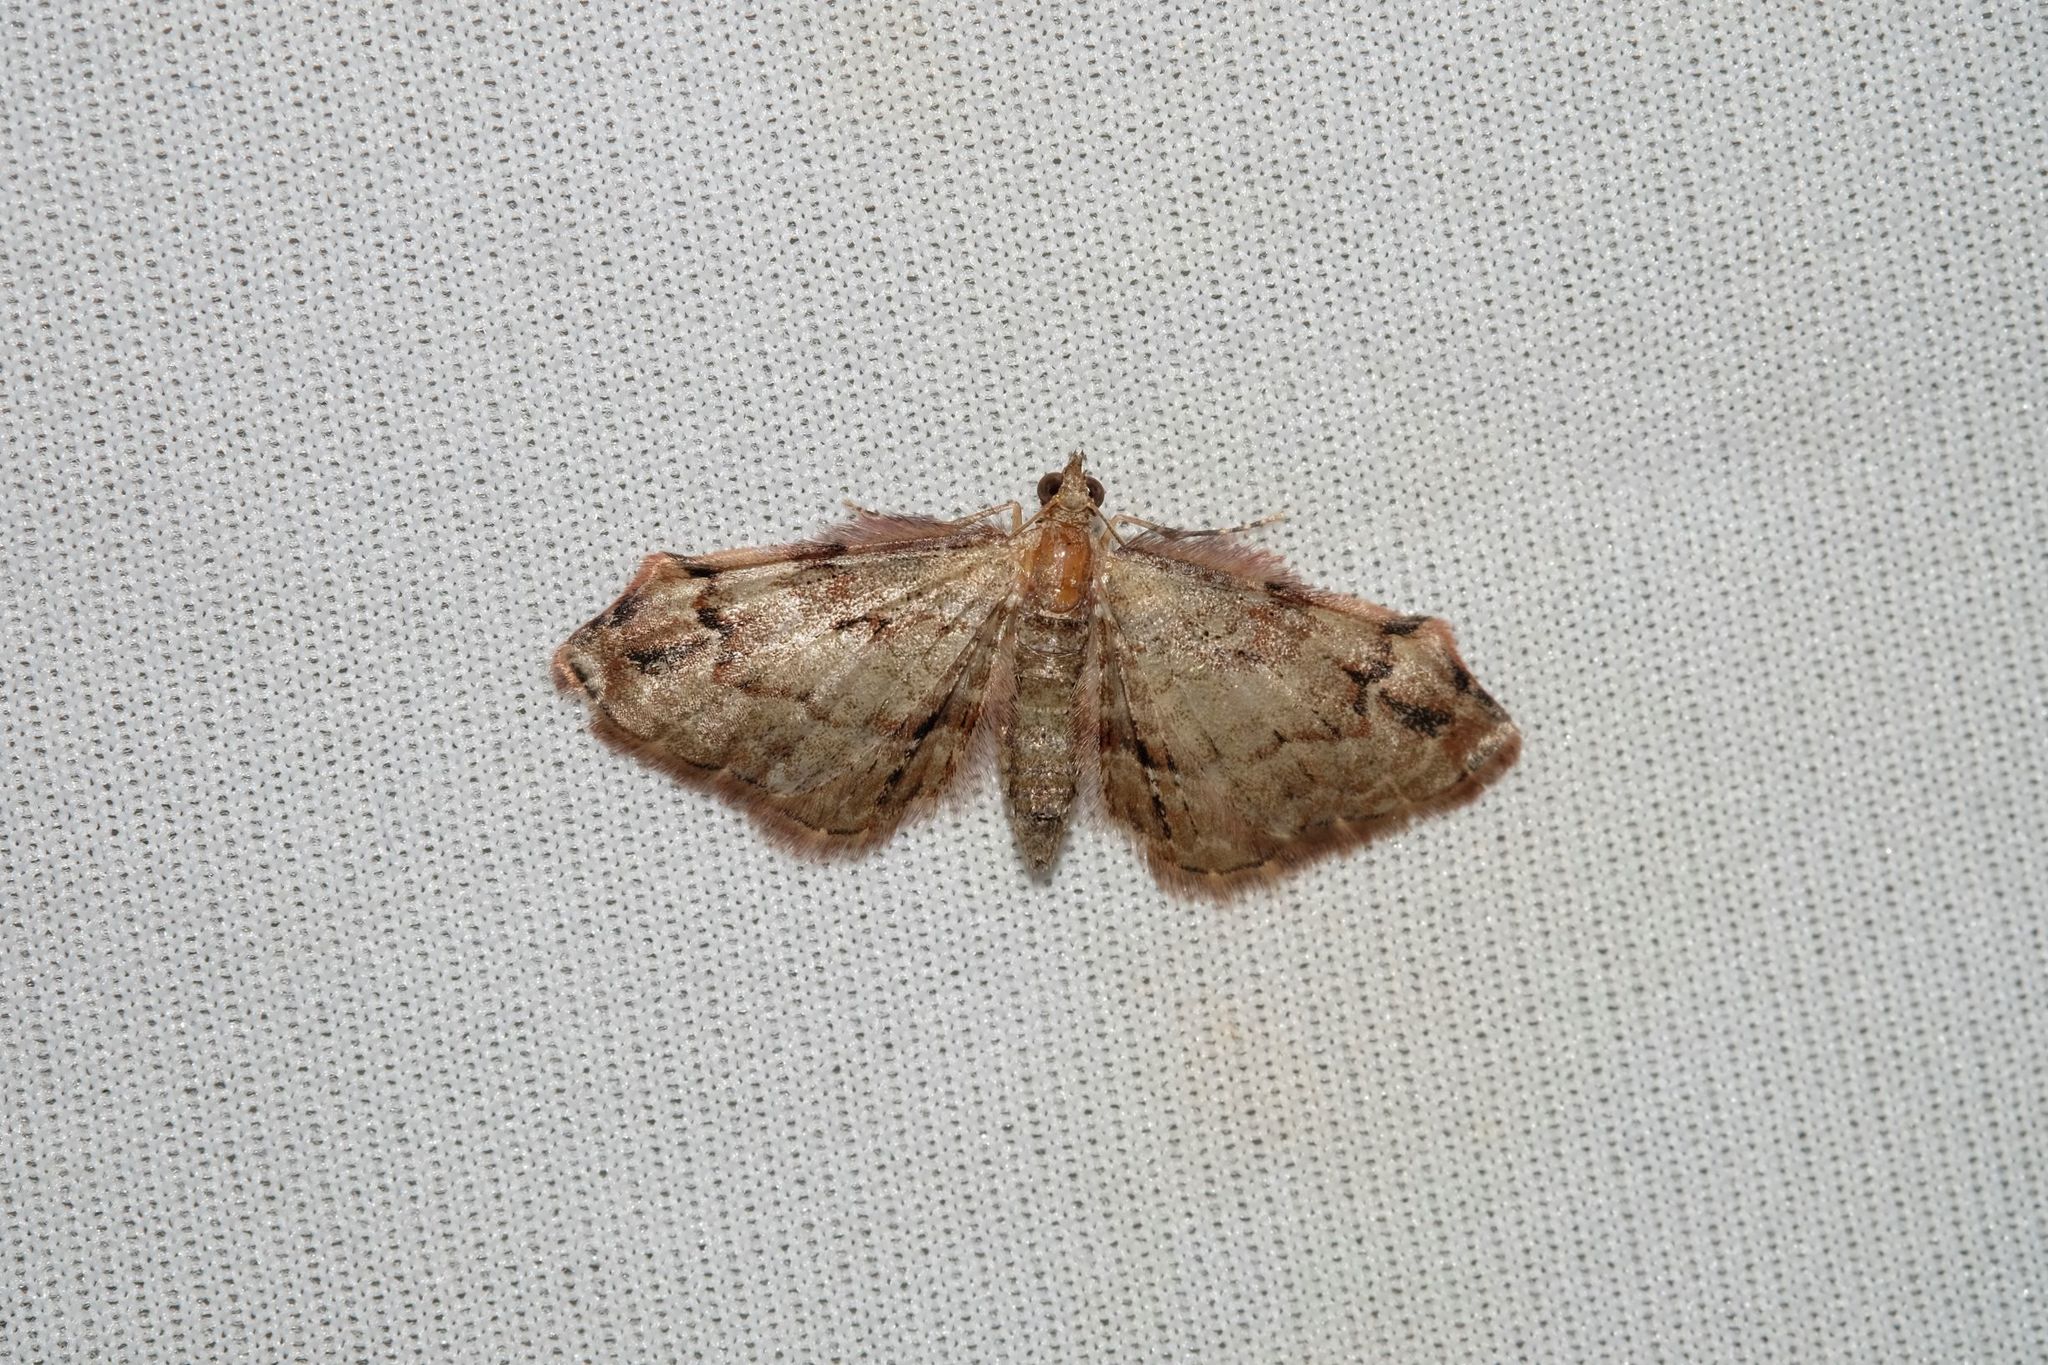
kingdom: Animalia
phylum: Arthropoda
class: Insecta
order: Lepidoptera
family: Geometridae
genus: Chloroclystis
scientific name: Chloroclystis approximata
